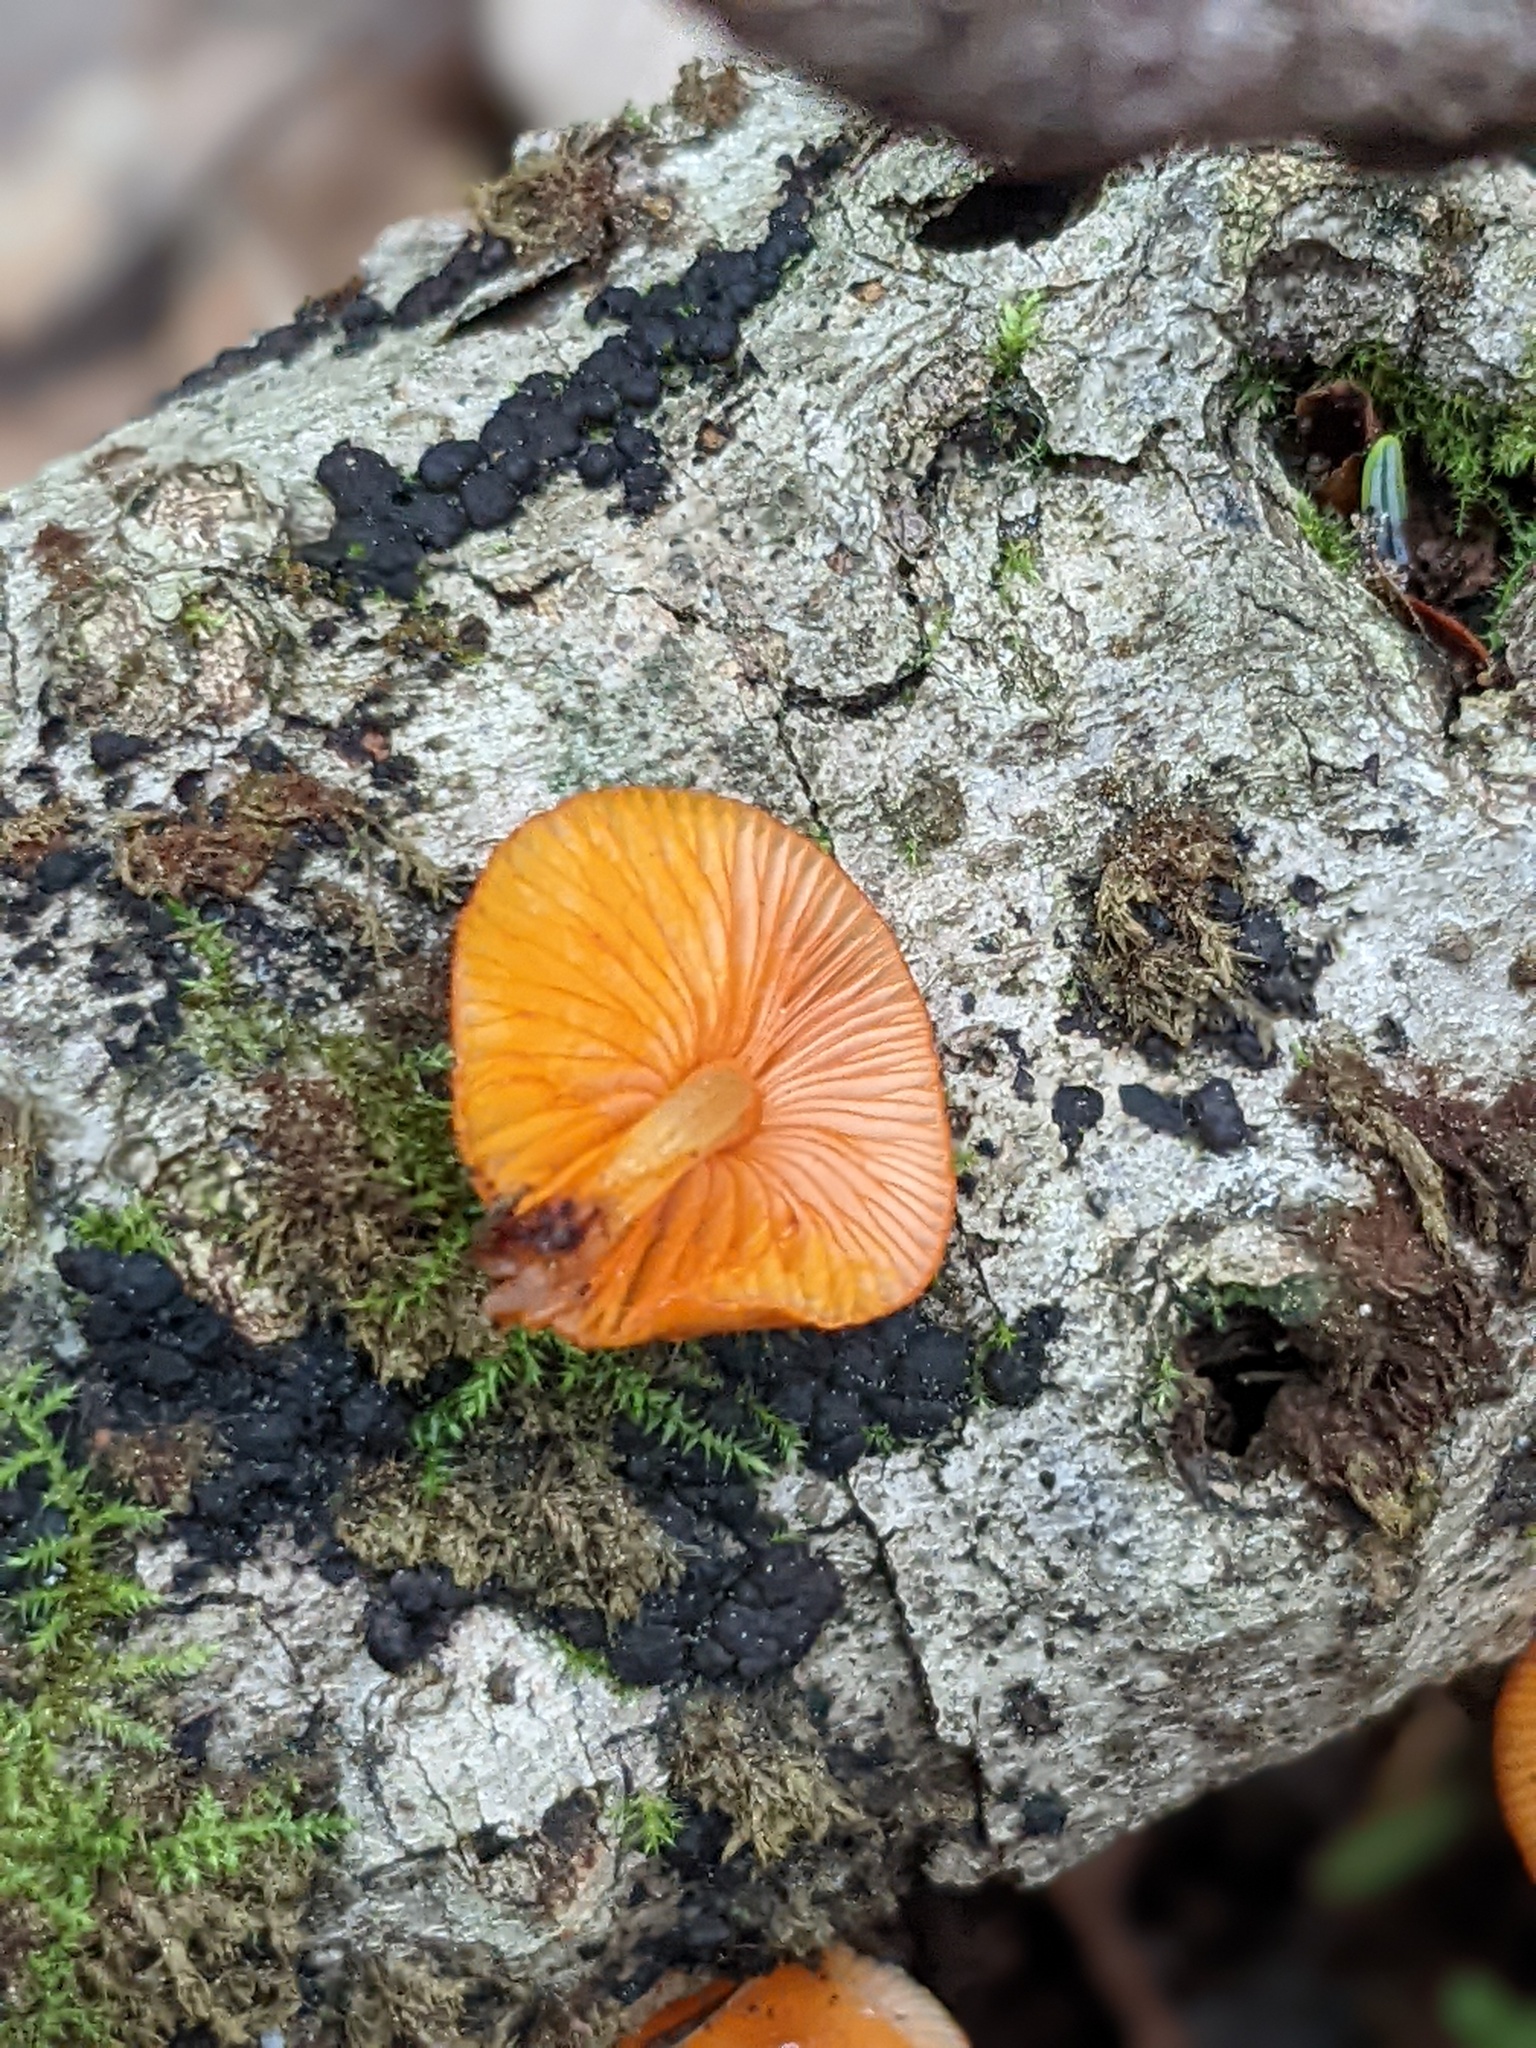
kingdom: Fungi
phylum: Basidiomycota
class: Agaricomycetes
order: Agaricales
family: Mycenaceae
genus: Mycena
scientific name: Mycena leaiana
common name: Orange mycena
